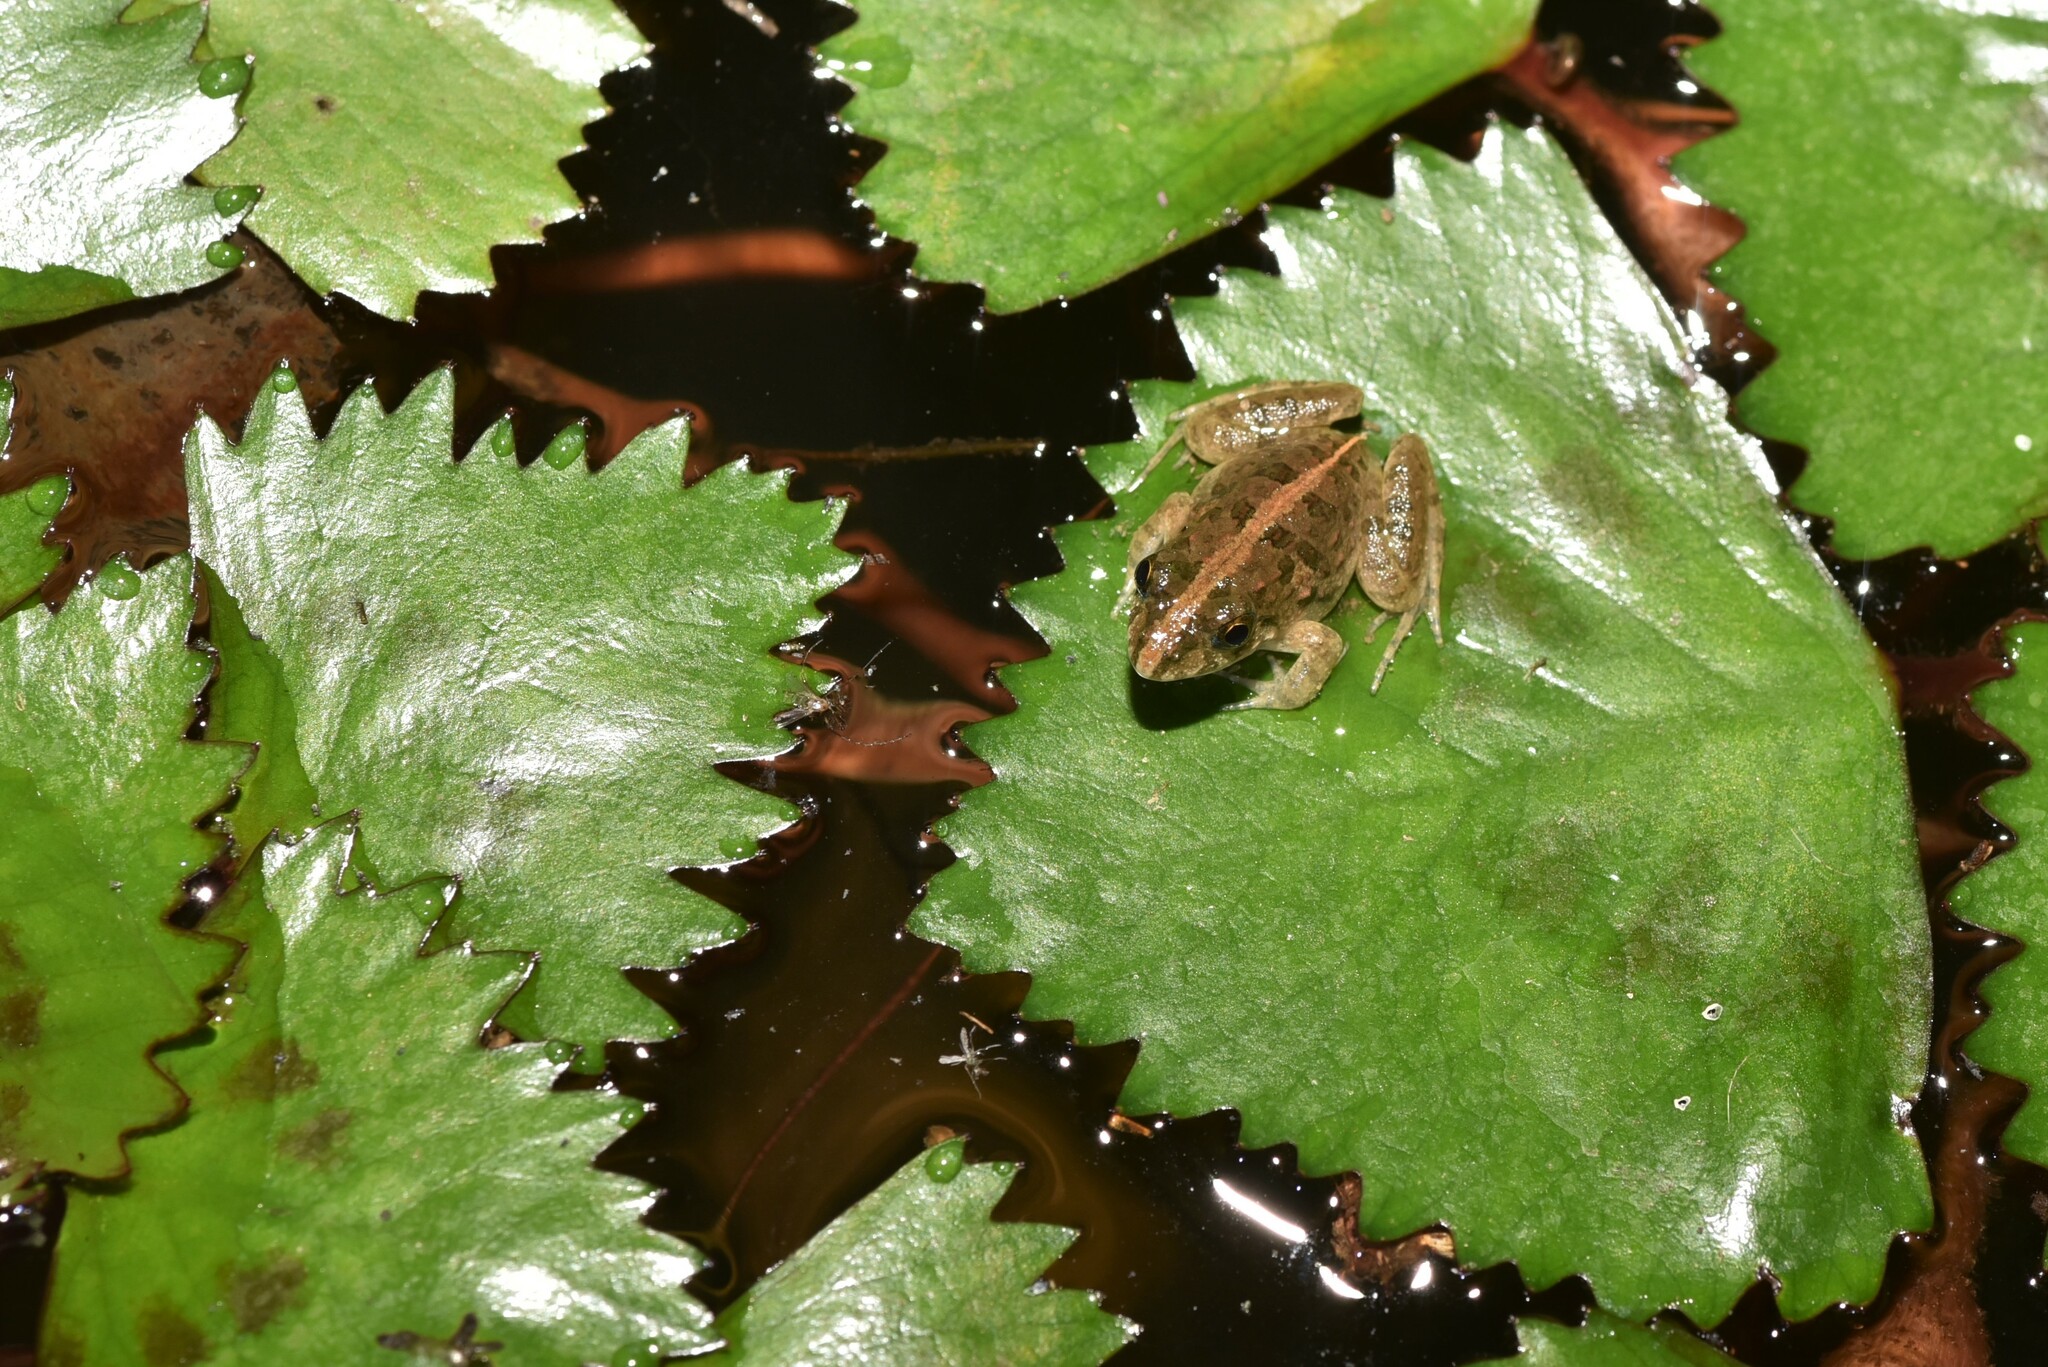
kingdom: Animalia
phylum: Chordata
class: Amphibia
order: Anura
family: Dicroglossidae
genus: Fejervarya
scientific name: Fejervarya limnocharis
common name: Asian grass frog/common pond frog/field frog/grass frog/indian rice frog
